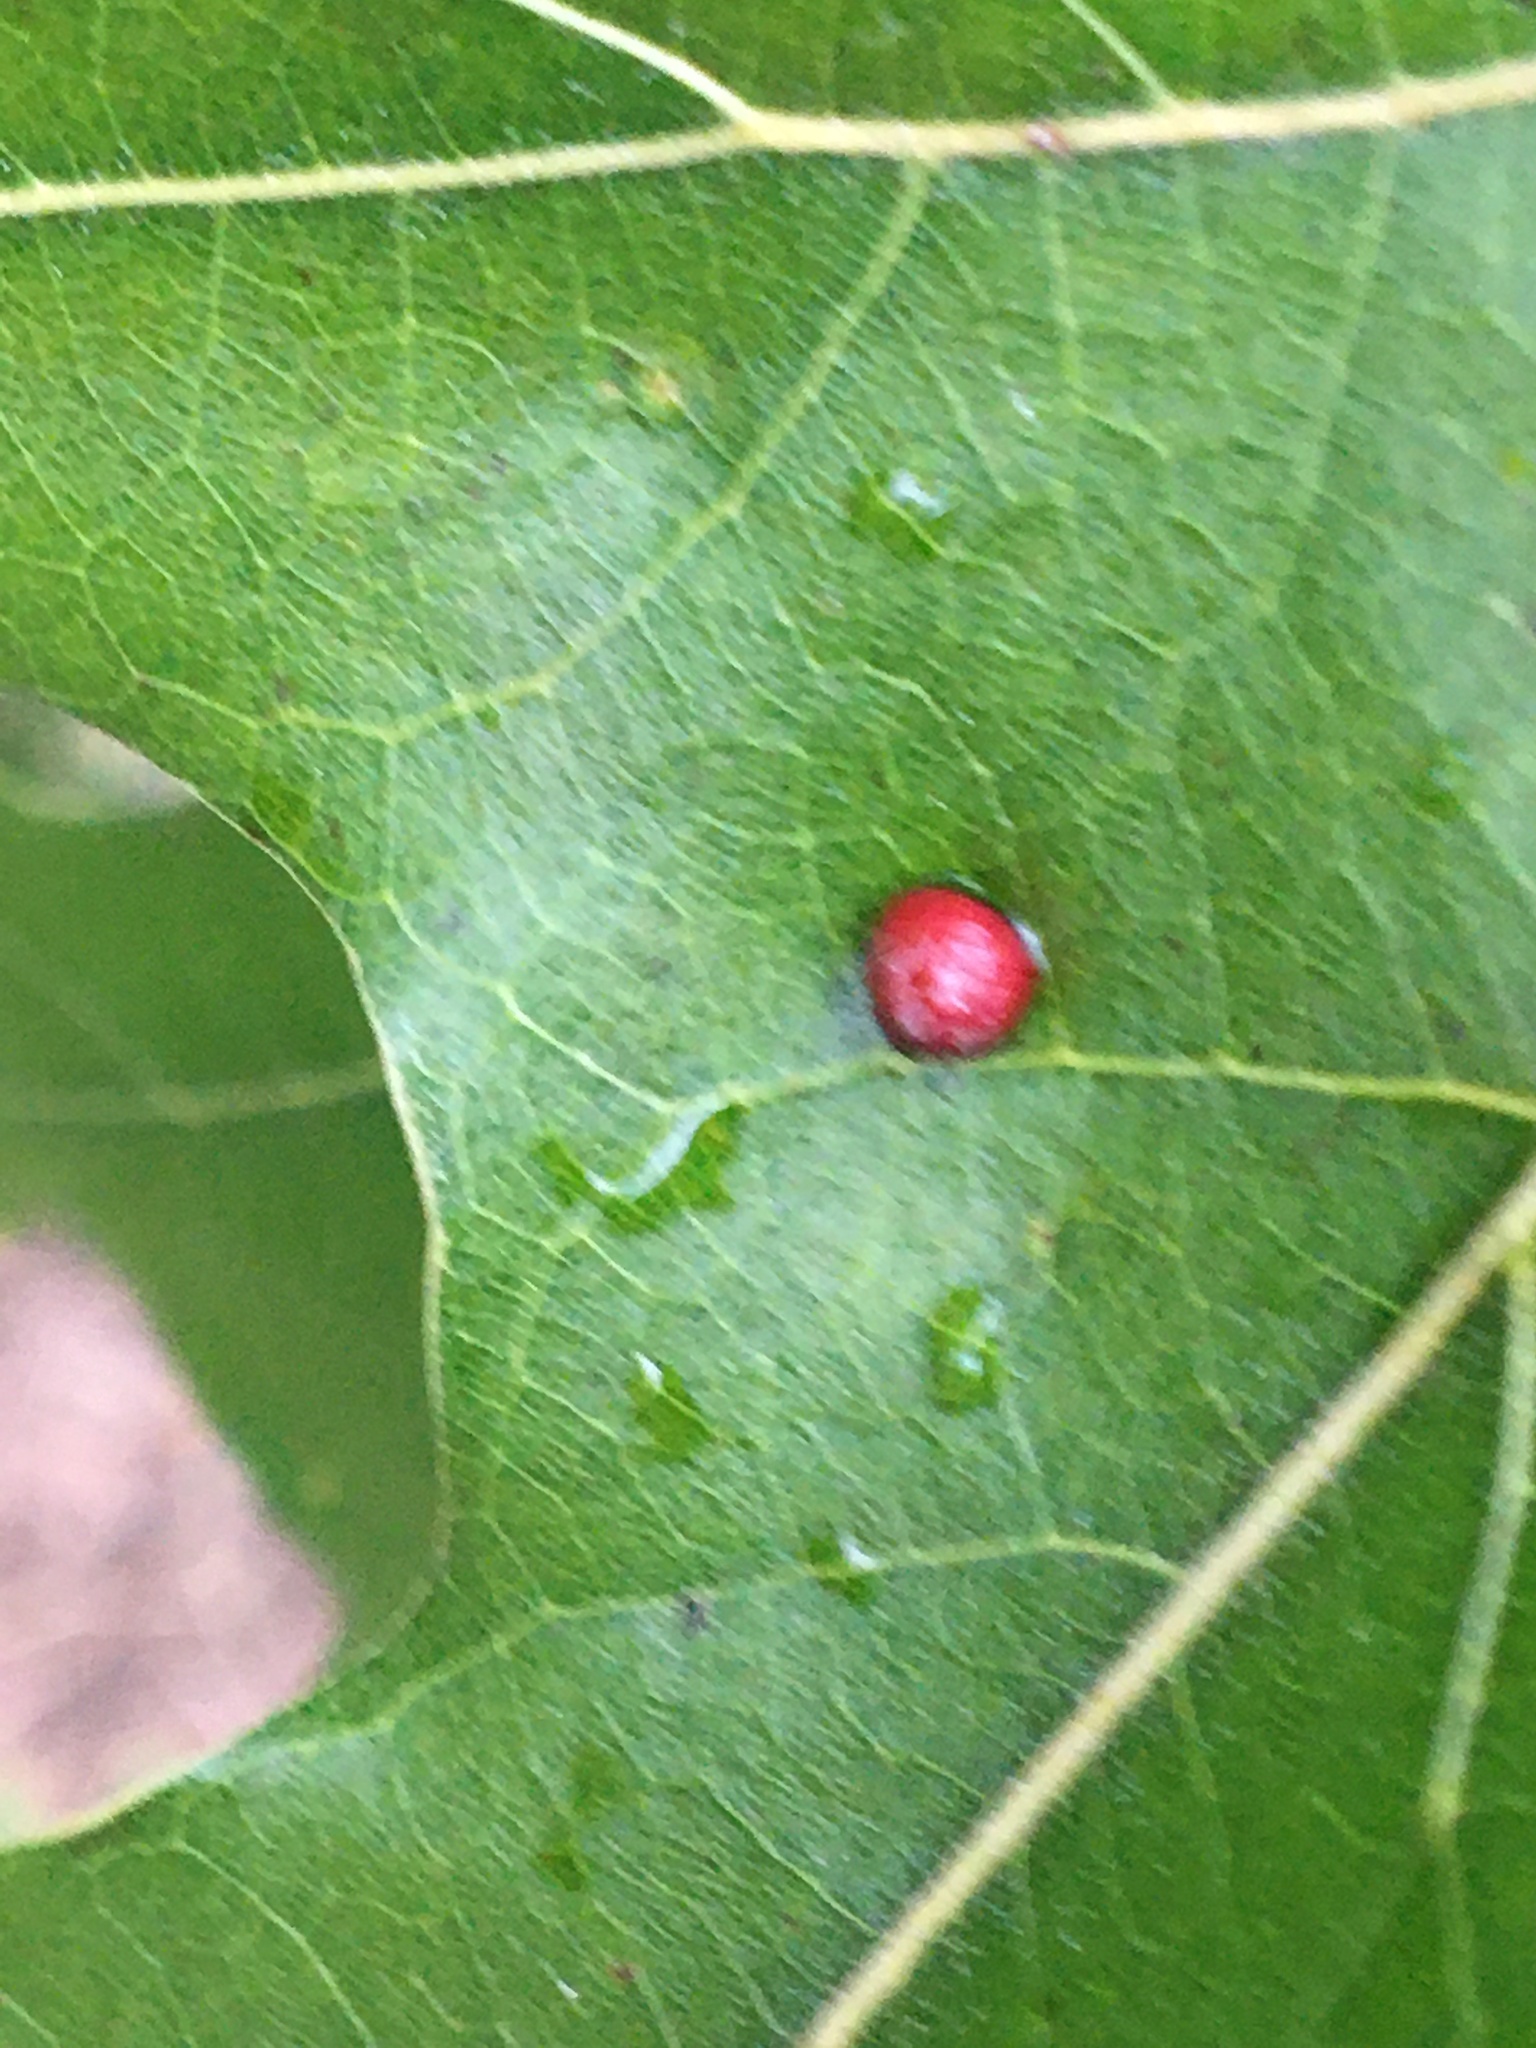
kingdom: Animalia
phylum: Arthropoda
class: Insecta
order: Diptera
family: Cecidomyiidae
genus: Polystepha
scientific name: Polystepha pilulae
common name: Oak leaf gall midge
